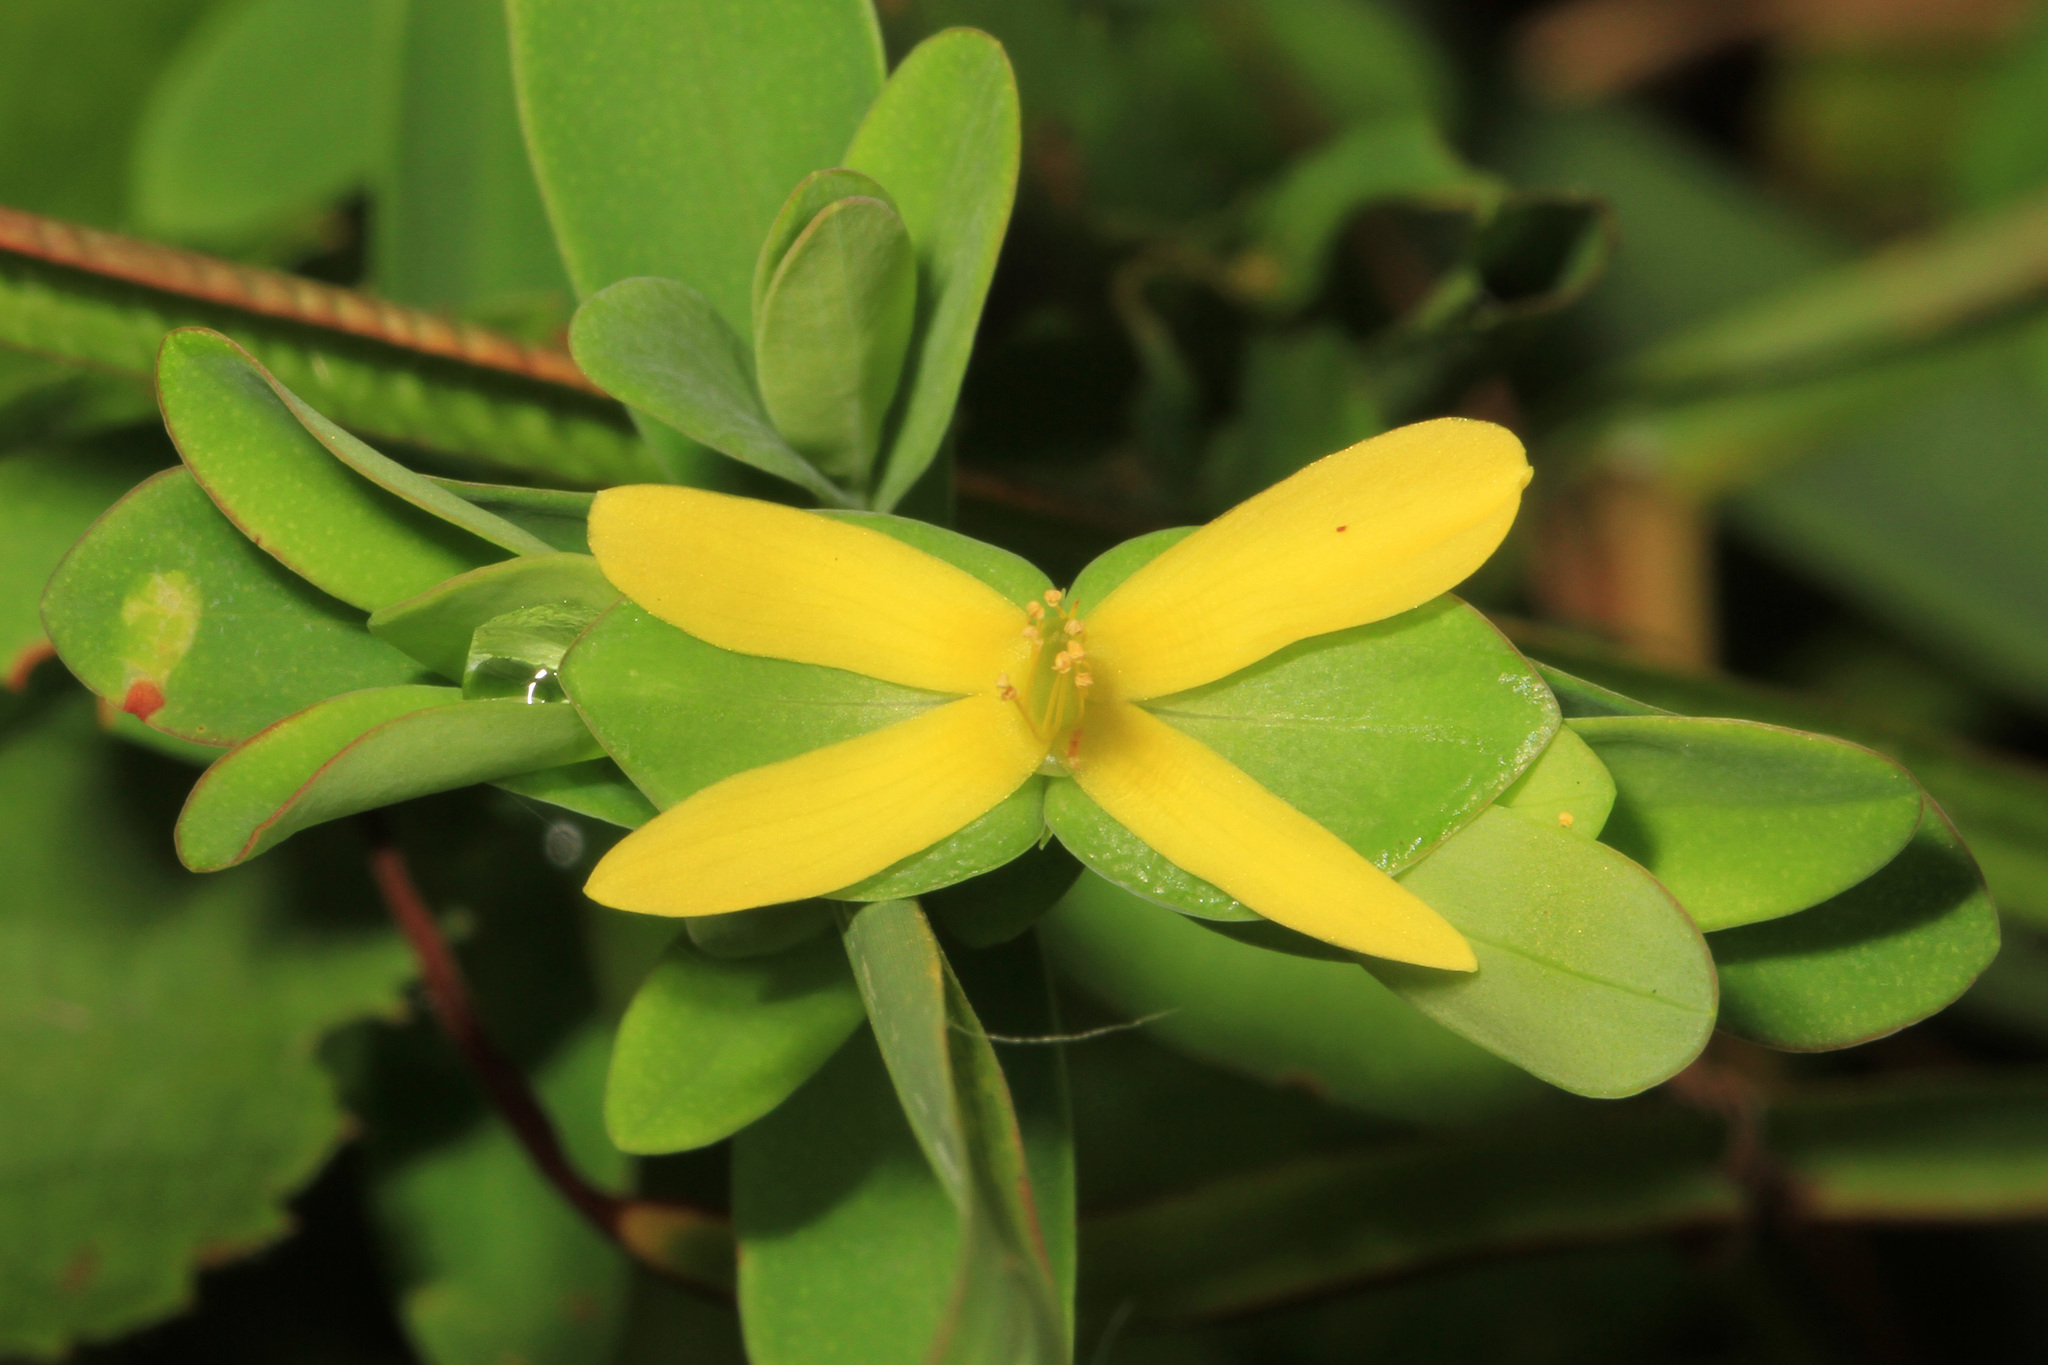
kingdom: Plantae
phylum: Tracheophyta
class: Magnoliopsida
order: Malpighiales
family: Hypericaceae
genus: Hypericum
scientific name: Hypericum hypericoides
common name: St. andrew's cross
